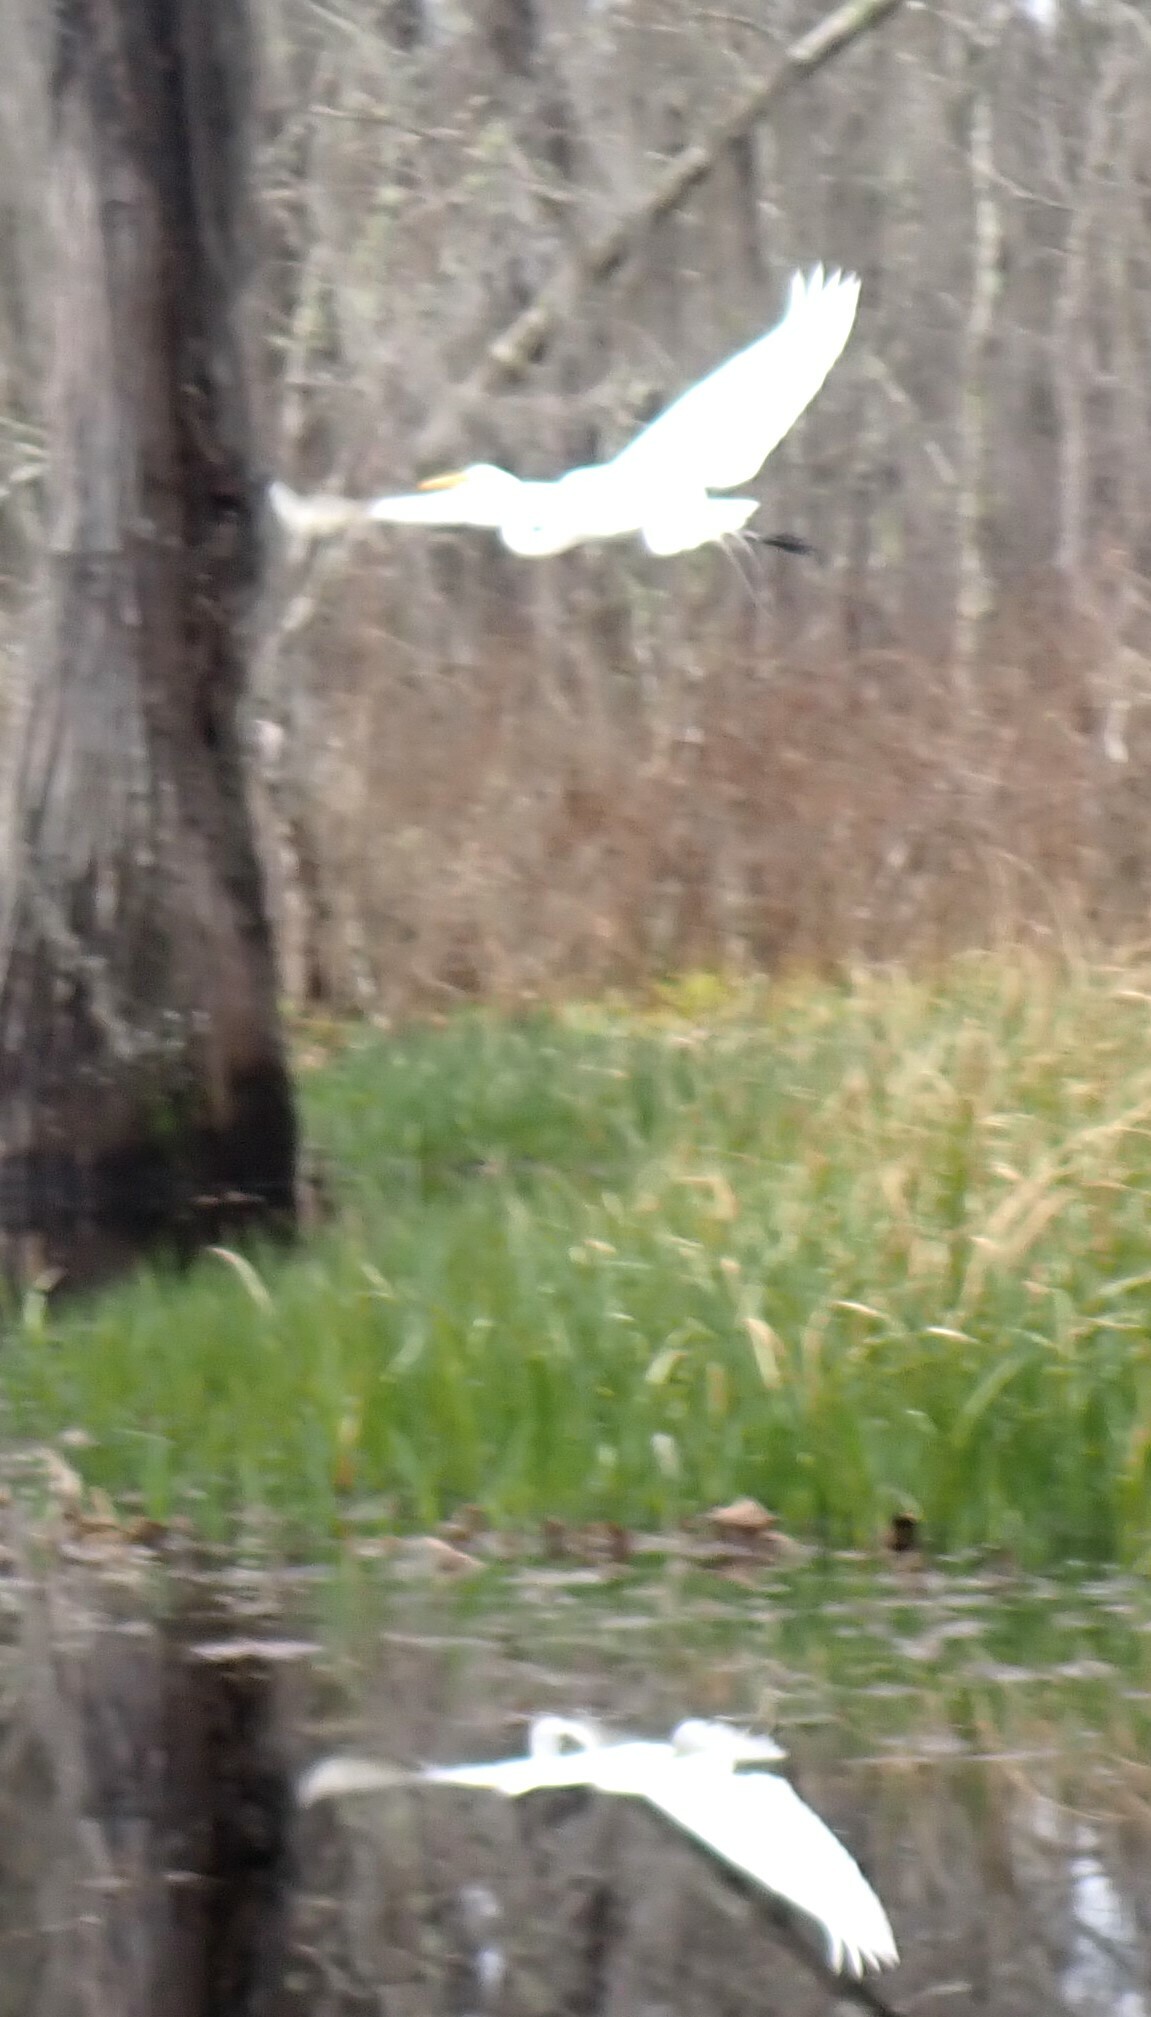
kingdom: Animalia
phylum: Chordata
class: Aves
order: Pelecaniformes
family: Ardeidae
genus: Ardea
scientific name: Ardea alba
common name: Great egret
